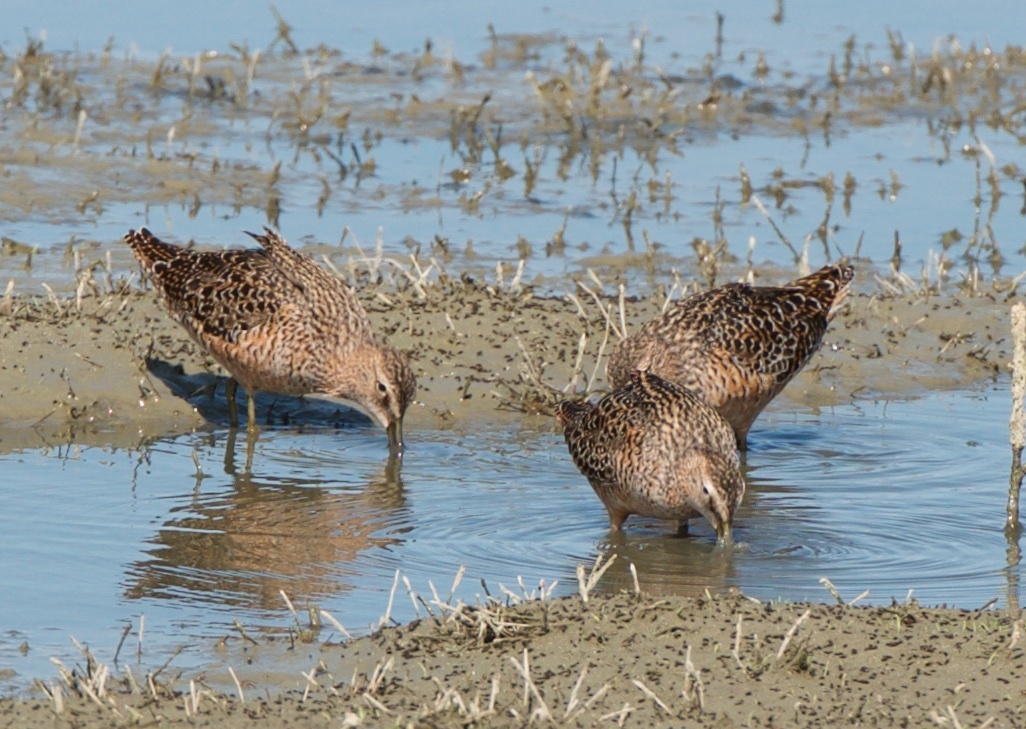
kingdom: Animalia
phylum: Chordata
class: Aves
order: Charadriiformes
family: Scolopacidae
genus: Limnodromus
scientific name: Limnodromus scolopaceus
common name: Long-billed dowitcher
